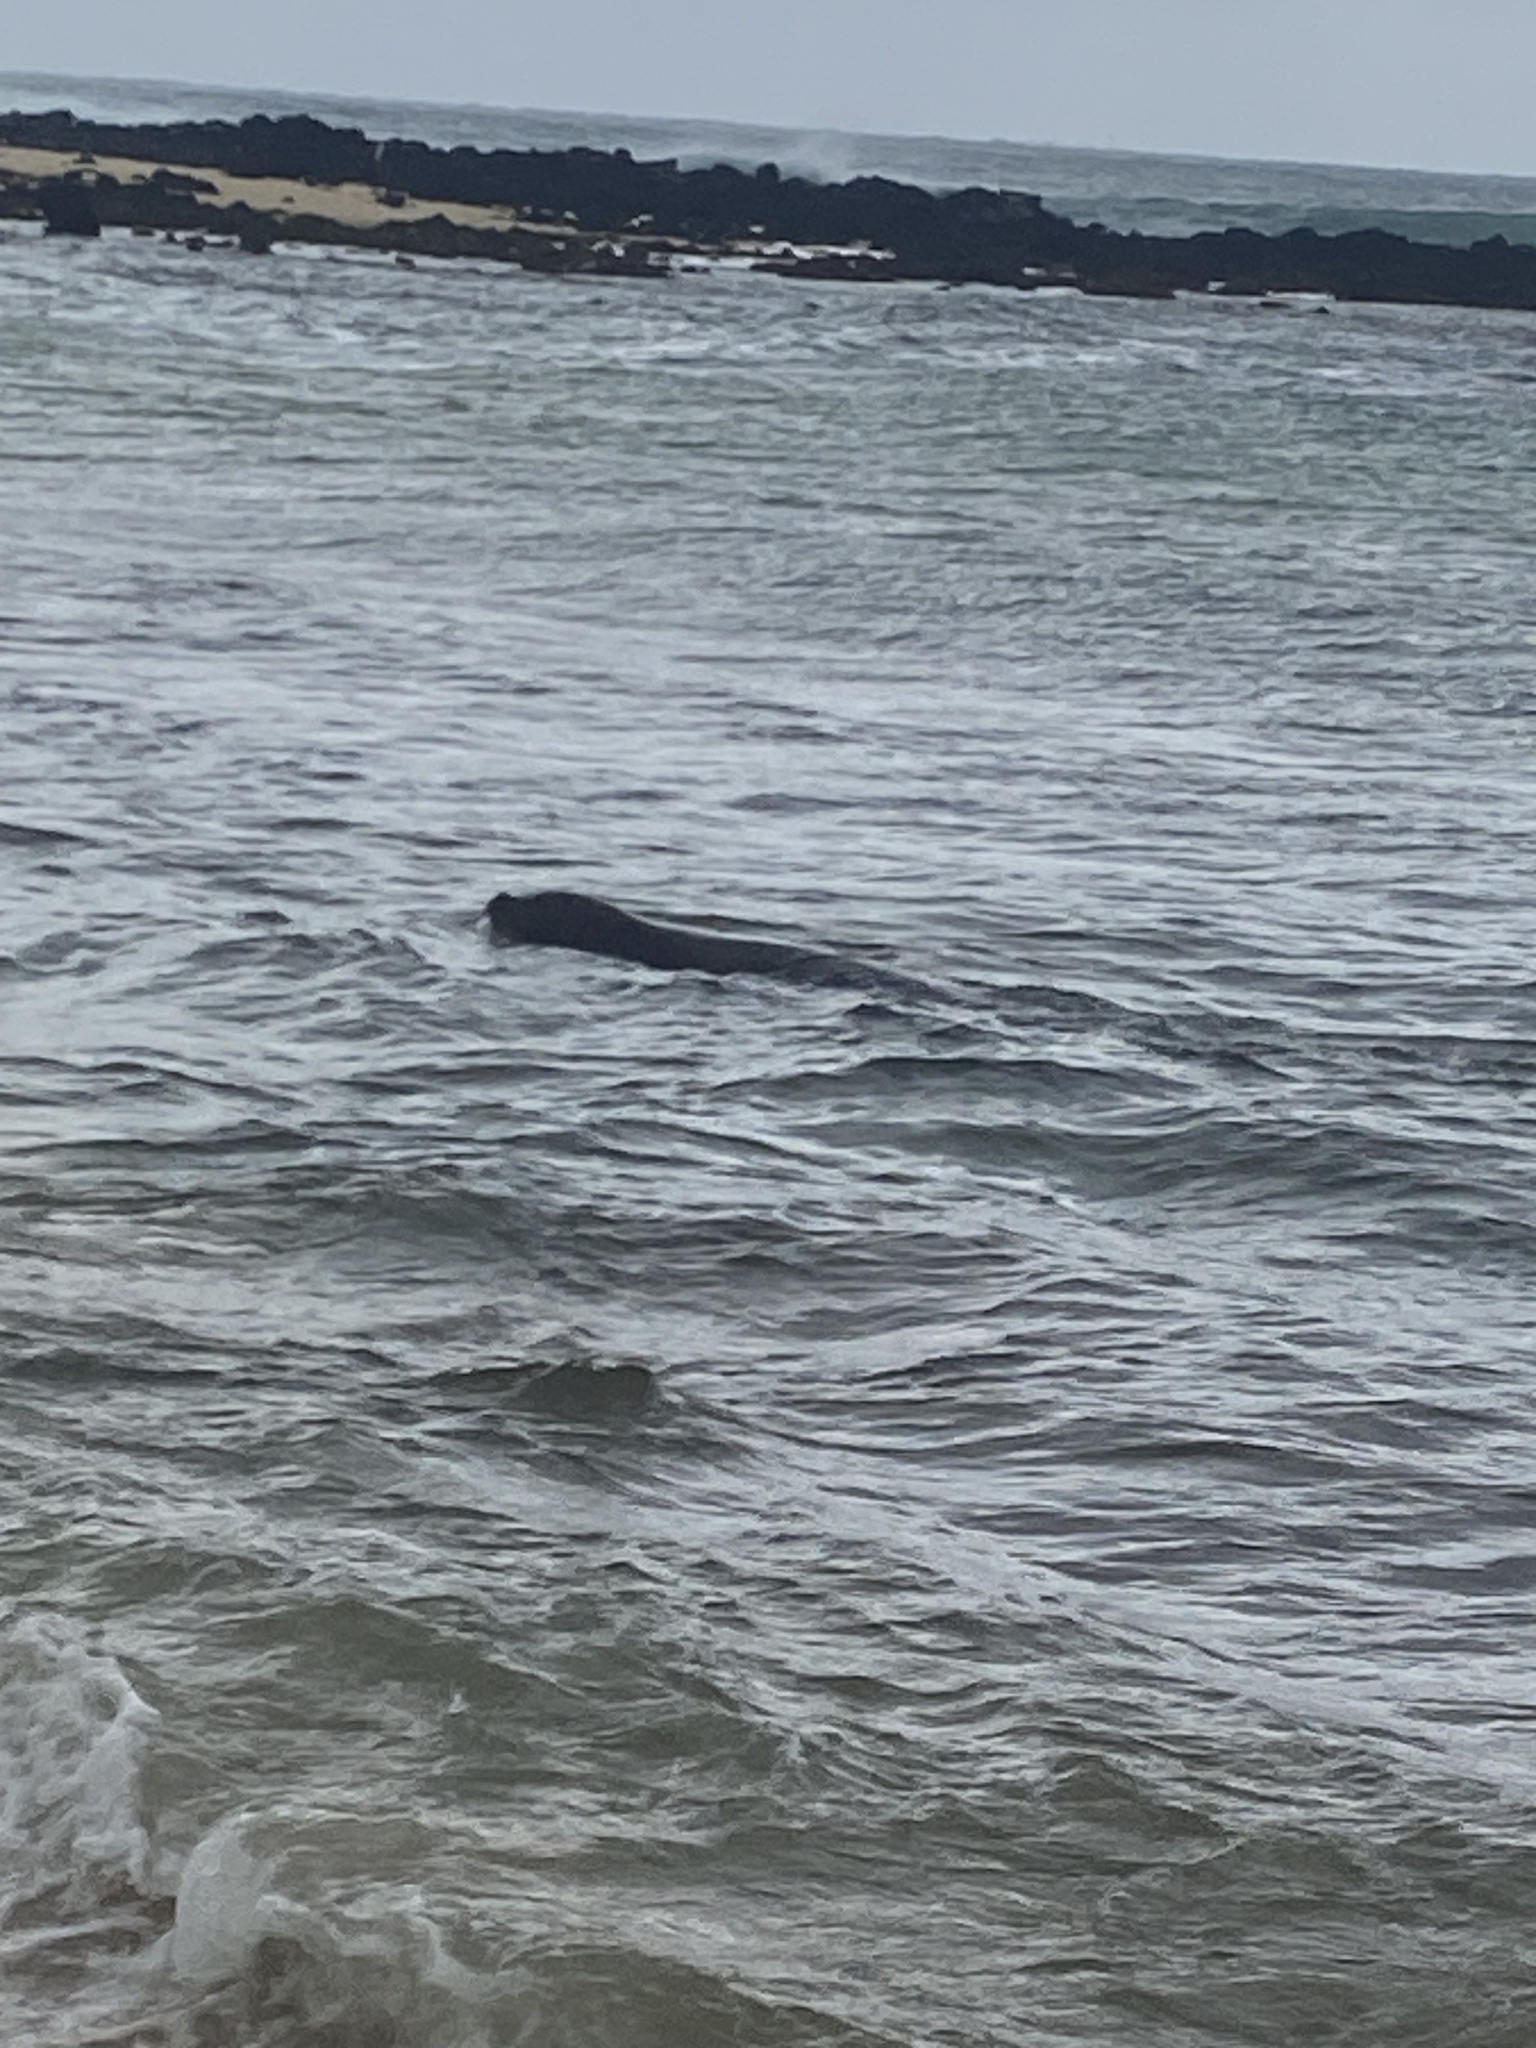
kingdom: Animalia
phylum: Chordata
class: Mammalia
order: Carnivora
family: Phocidae
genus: Neomonachus
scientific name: Neomonachus schauinslandi
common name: Hawaiian monk seal
